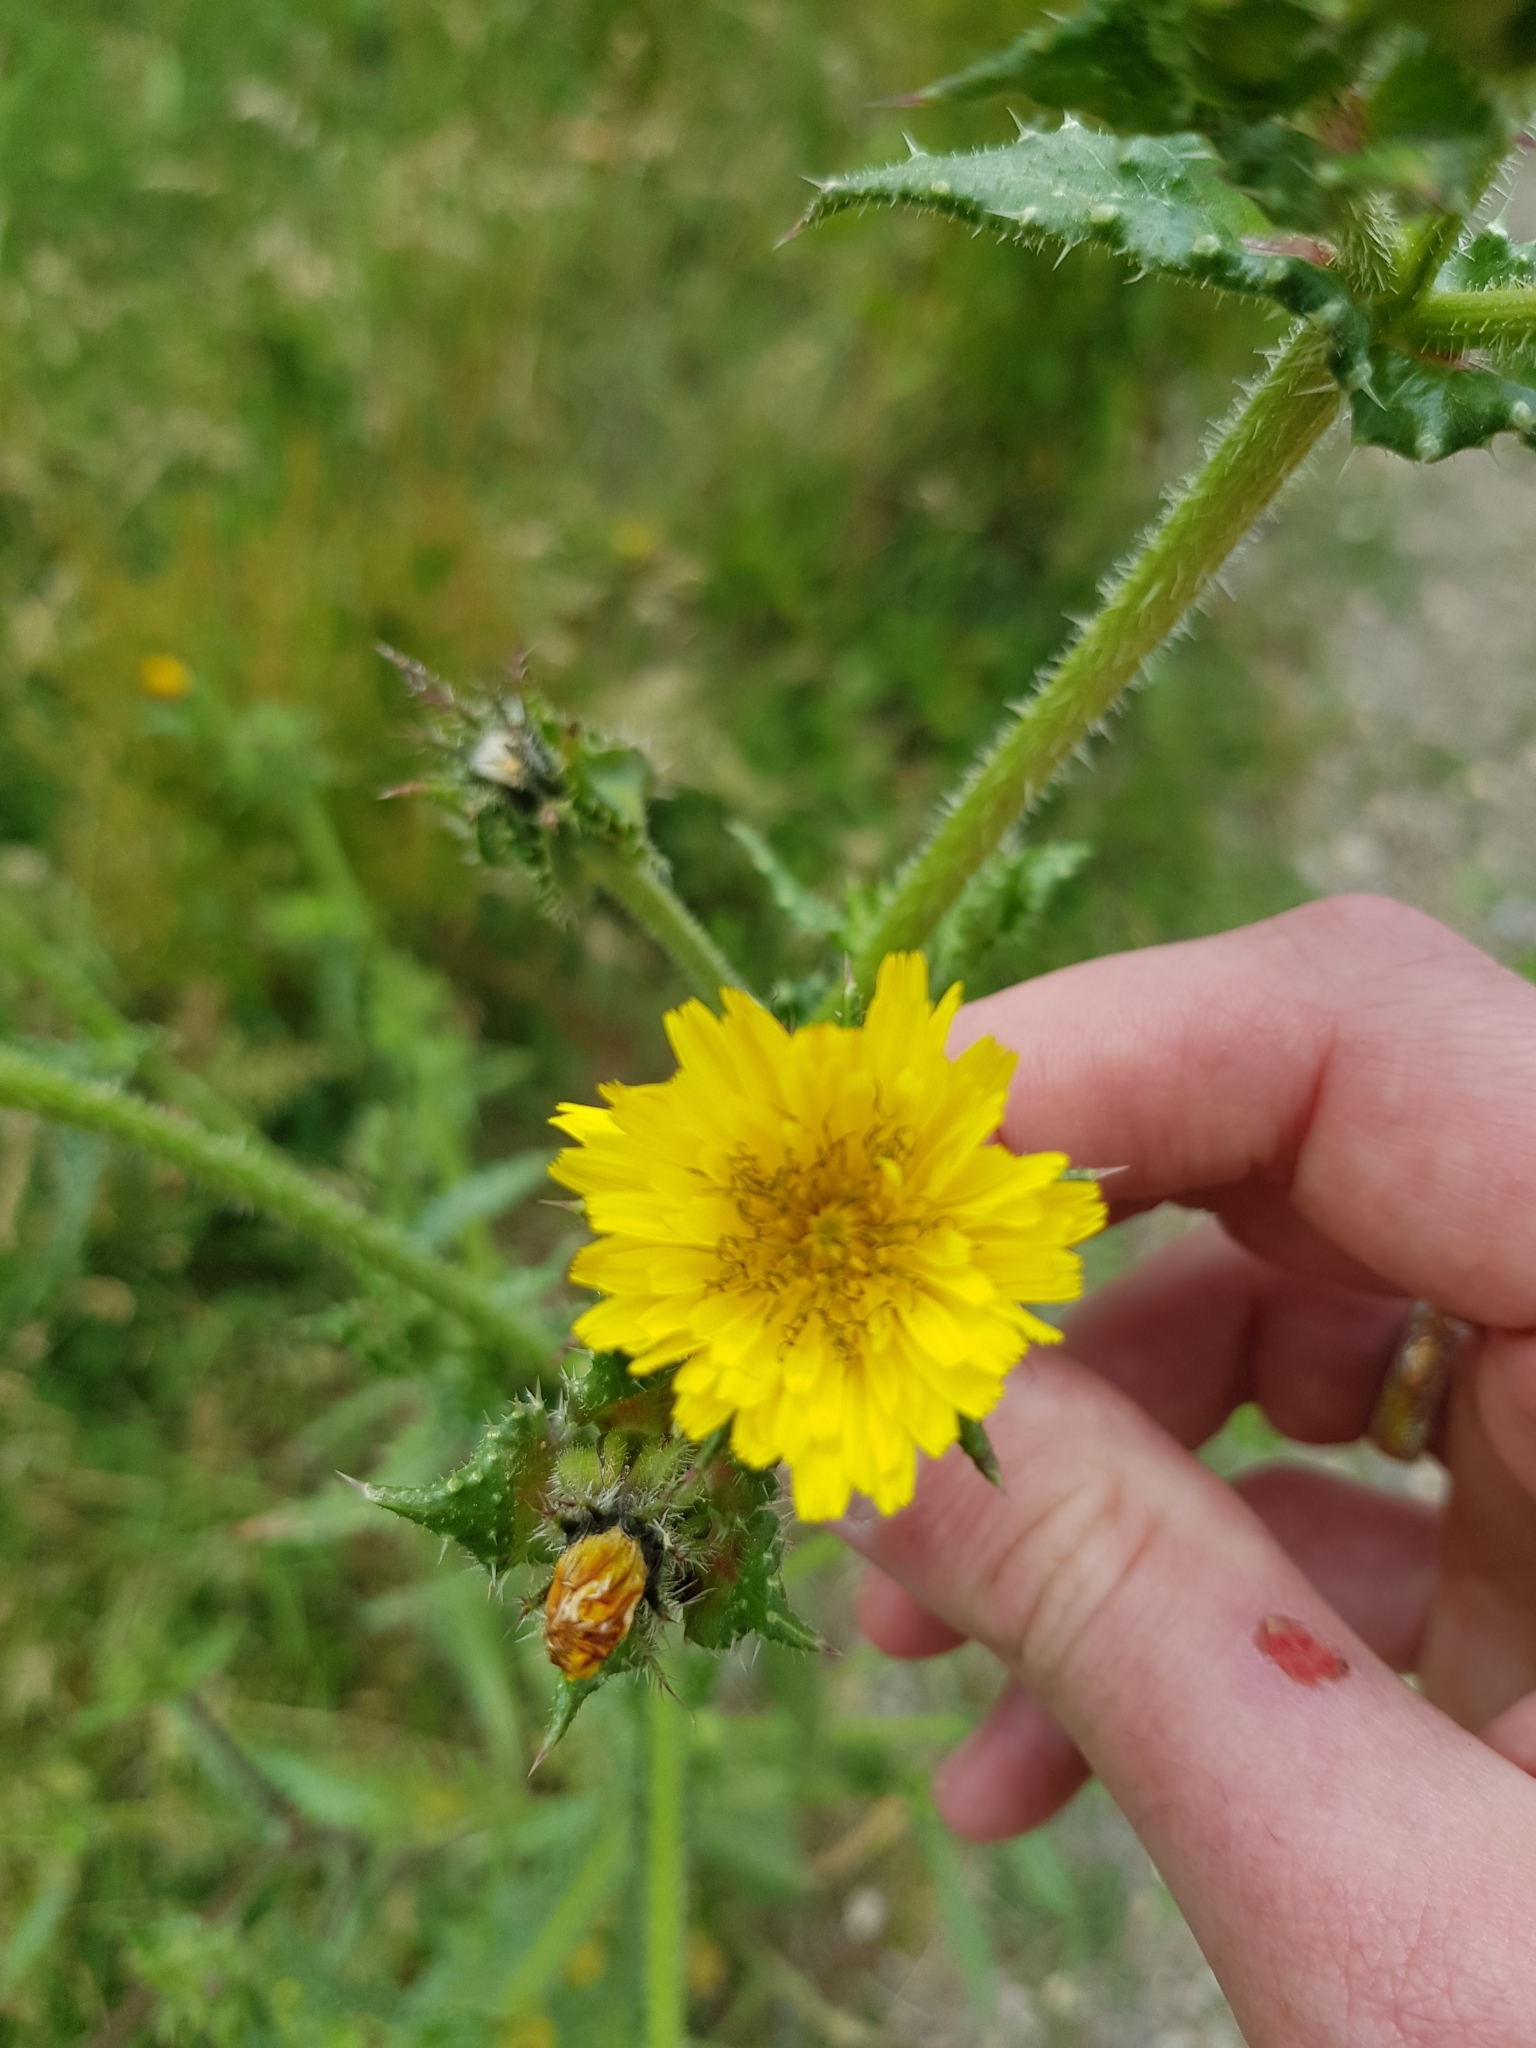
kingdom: Plantae
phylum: Tracheophyta
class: Magnoliopsida
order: Asterales
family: Asteraceae
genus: Helminthotheca
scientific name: Helminthotheca echioides
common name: Ox-tongue
